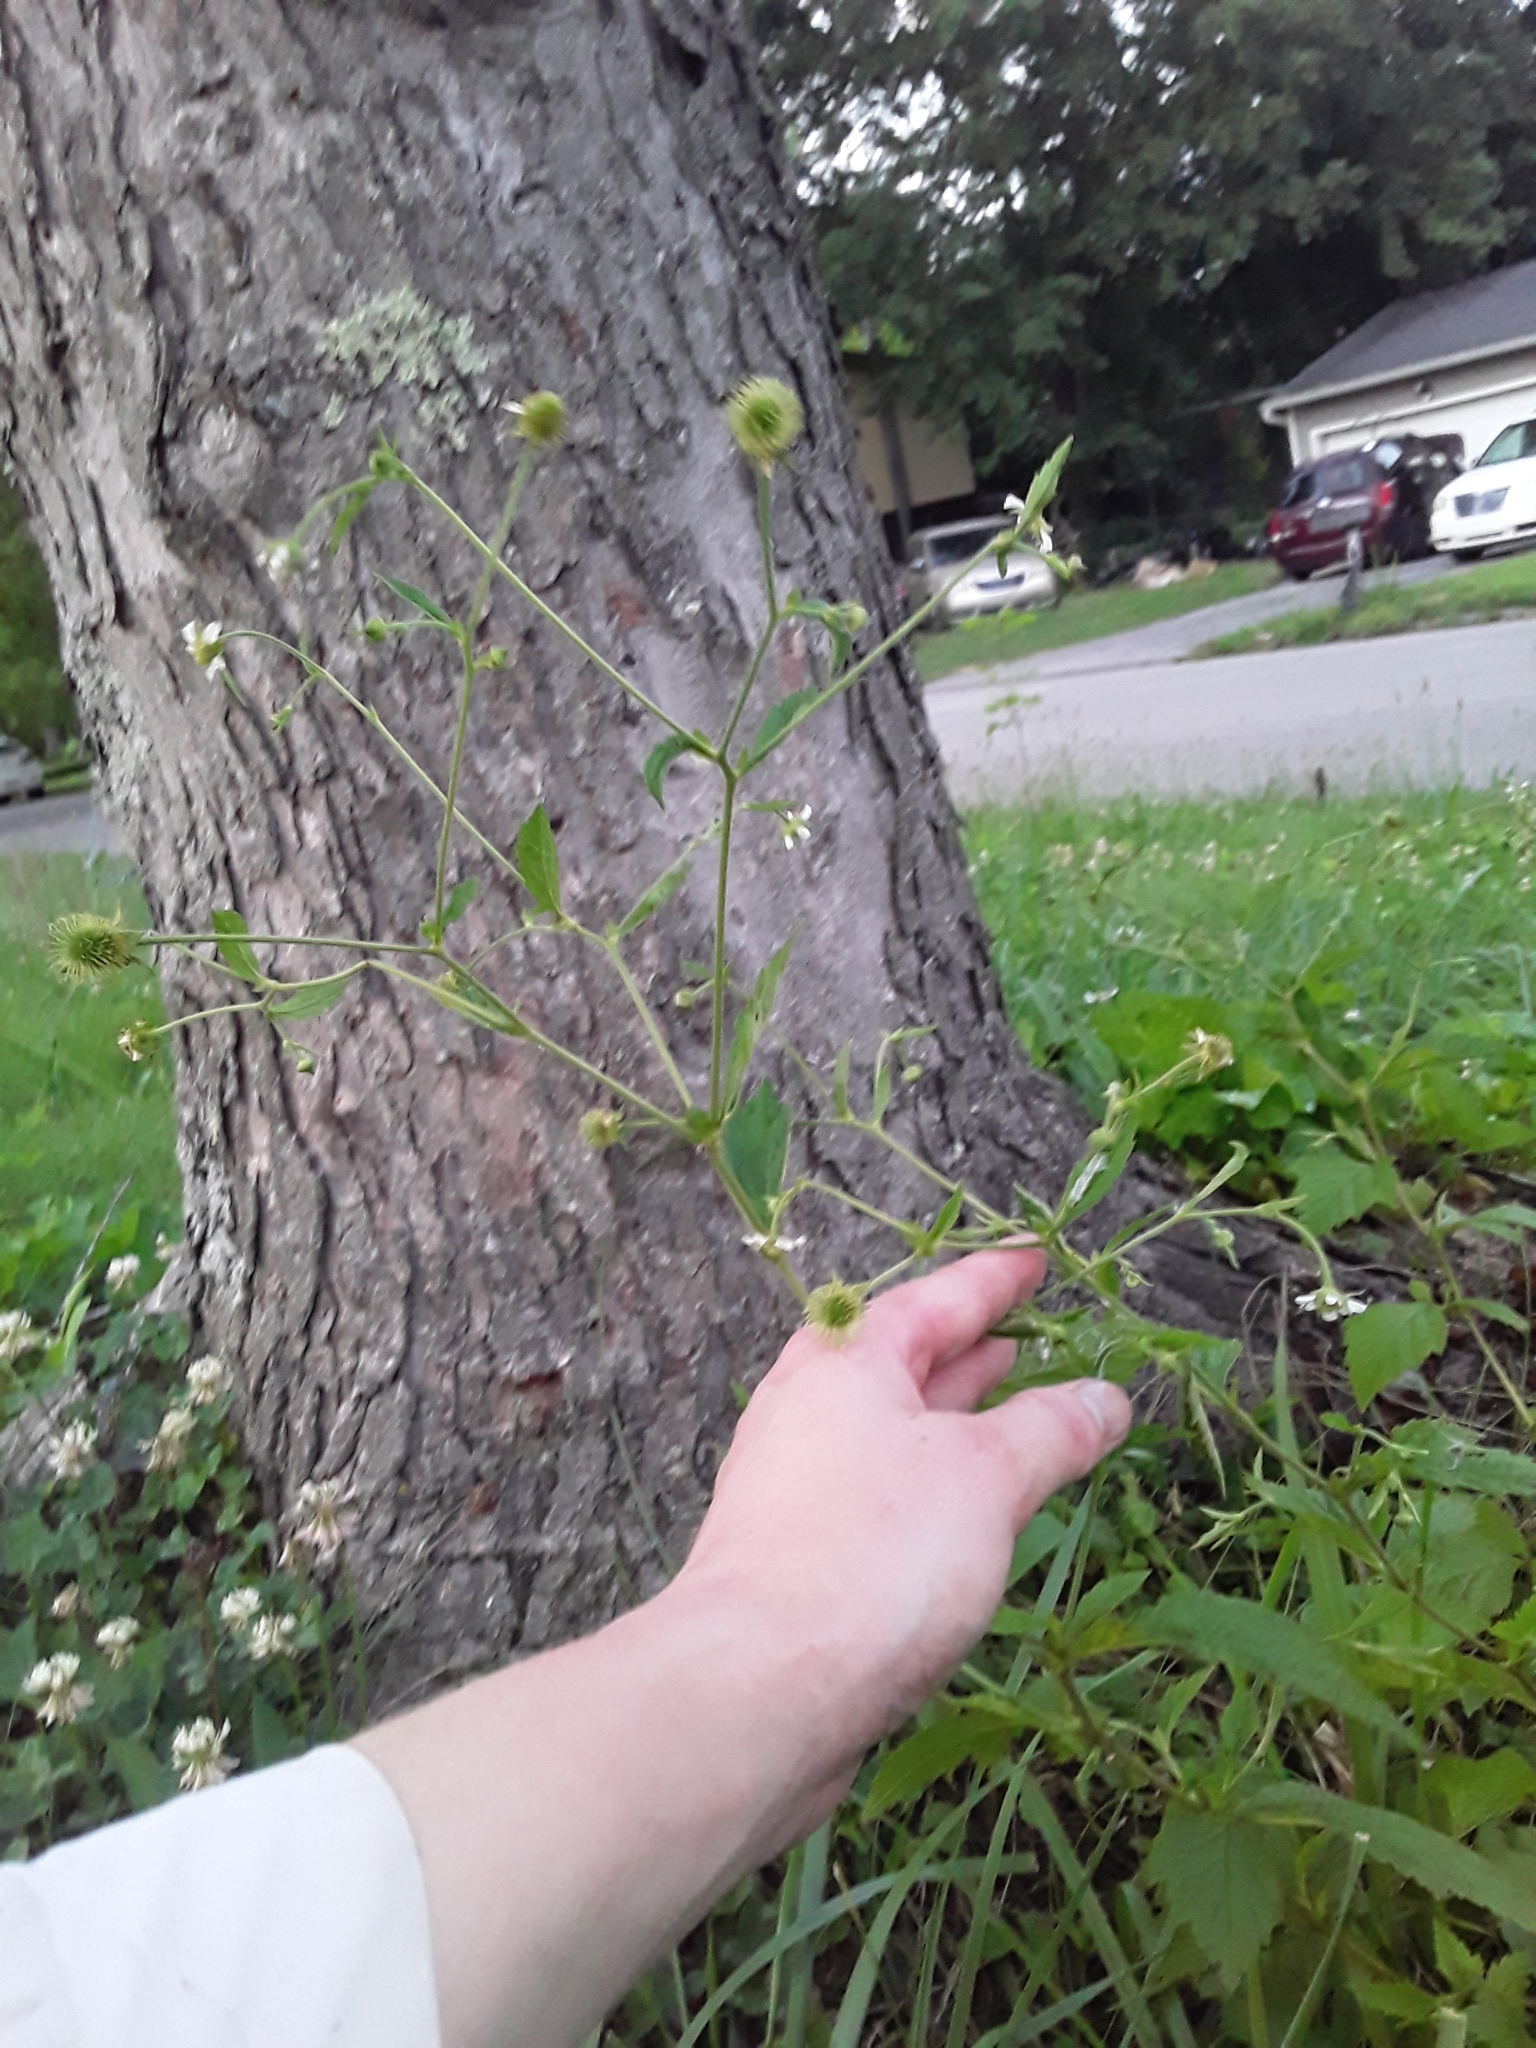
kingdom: Plantae
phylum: Tracheophyta
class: Magnoliopsida
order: Rosales
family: Rosaceae
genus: Geum
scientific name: Geum canadense
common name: White avens
